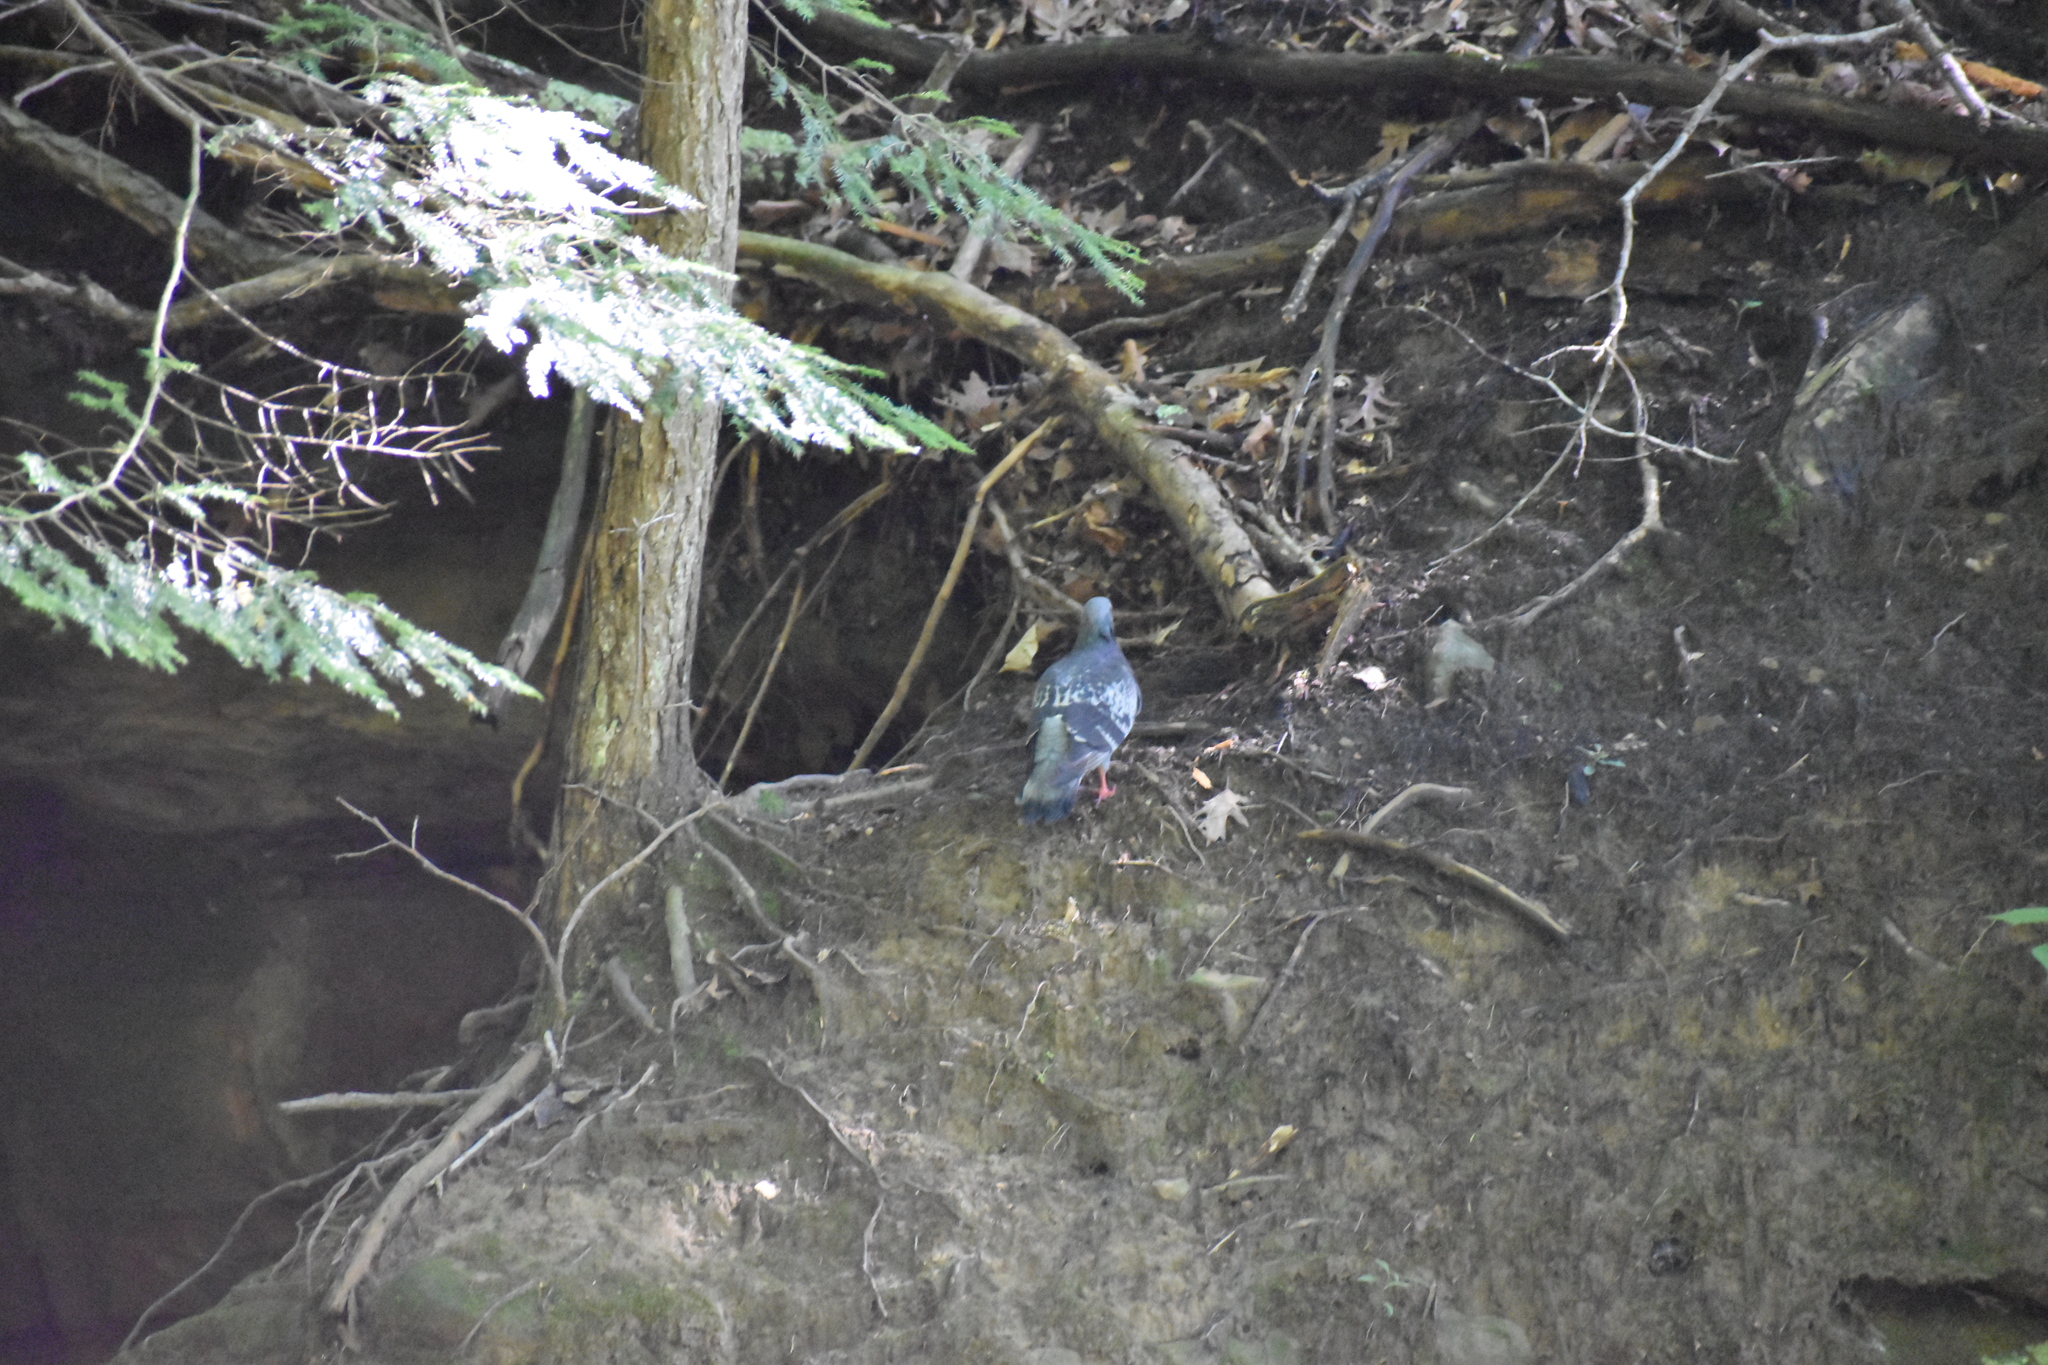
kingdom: Animalia
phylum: Chordata
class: Aves
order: Columbiformes
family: Columbidae
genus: Columba
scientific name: Columba livia
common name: Rock pigeon
